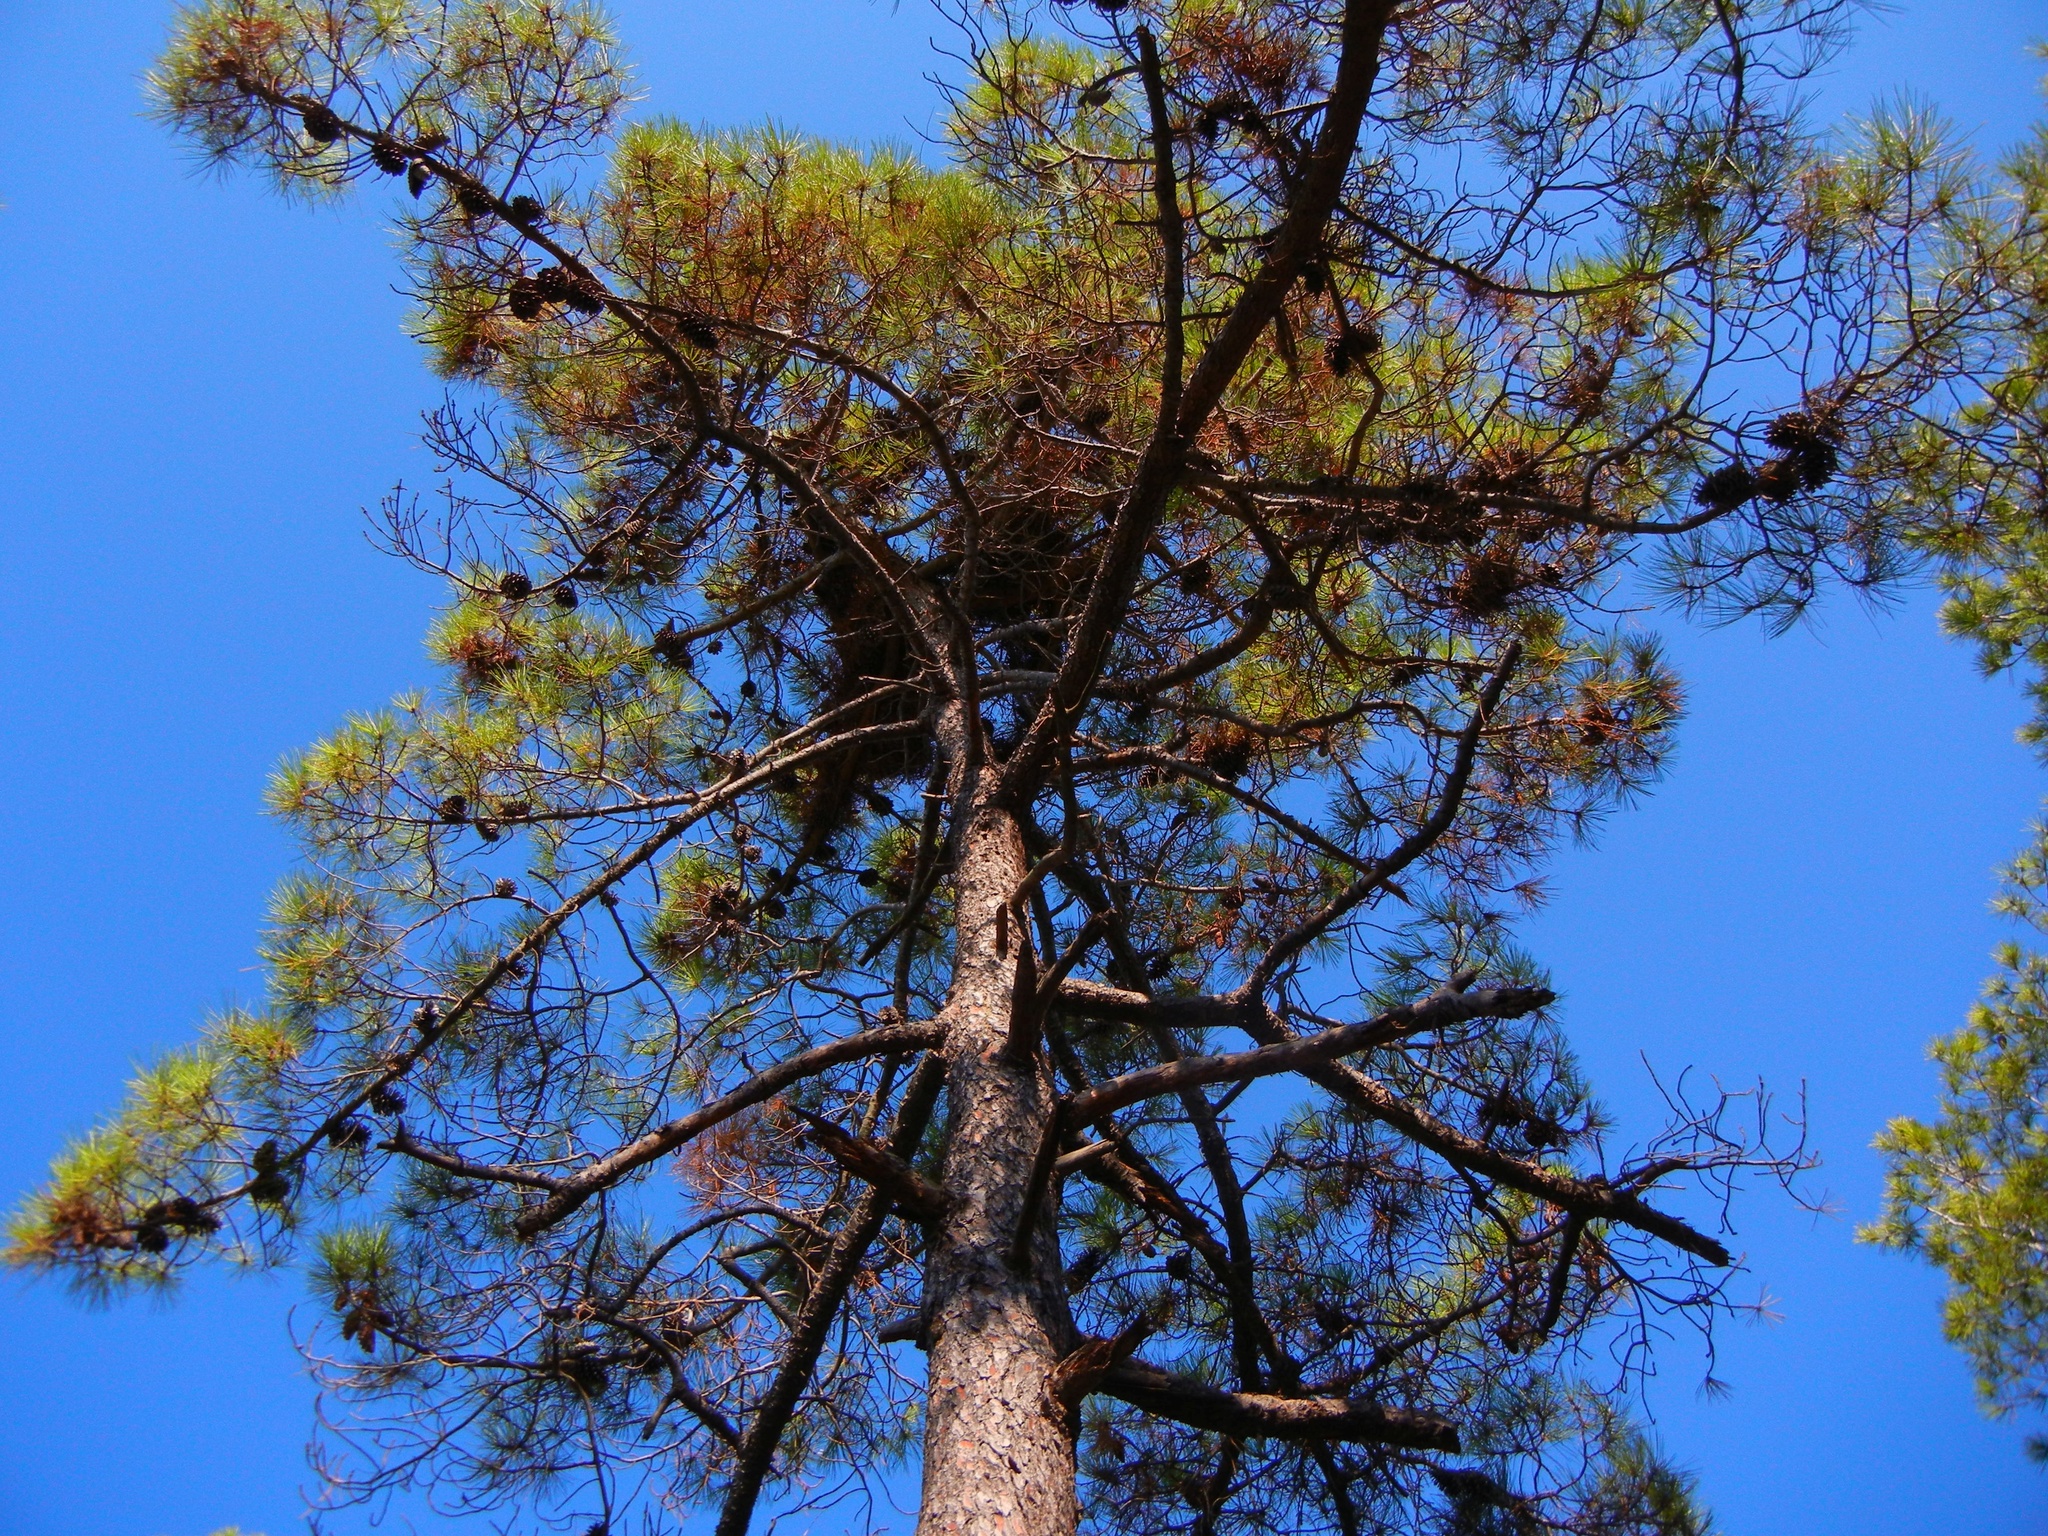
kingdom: Plantae
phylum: Tracheophyta
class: Pinopsida
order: Pinales
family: Pinaceae
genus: Pinus
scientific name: Pinus pinaster
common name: Maritime pine
